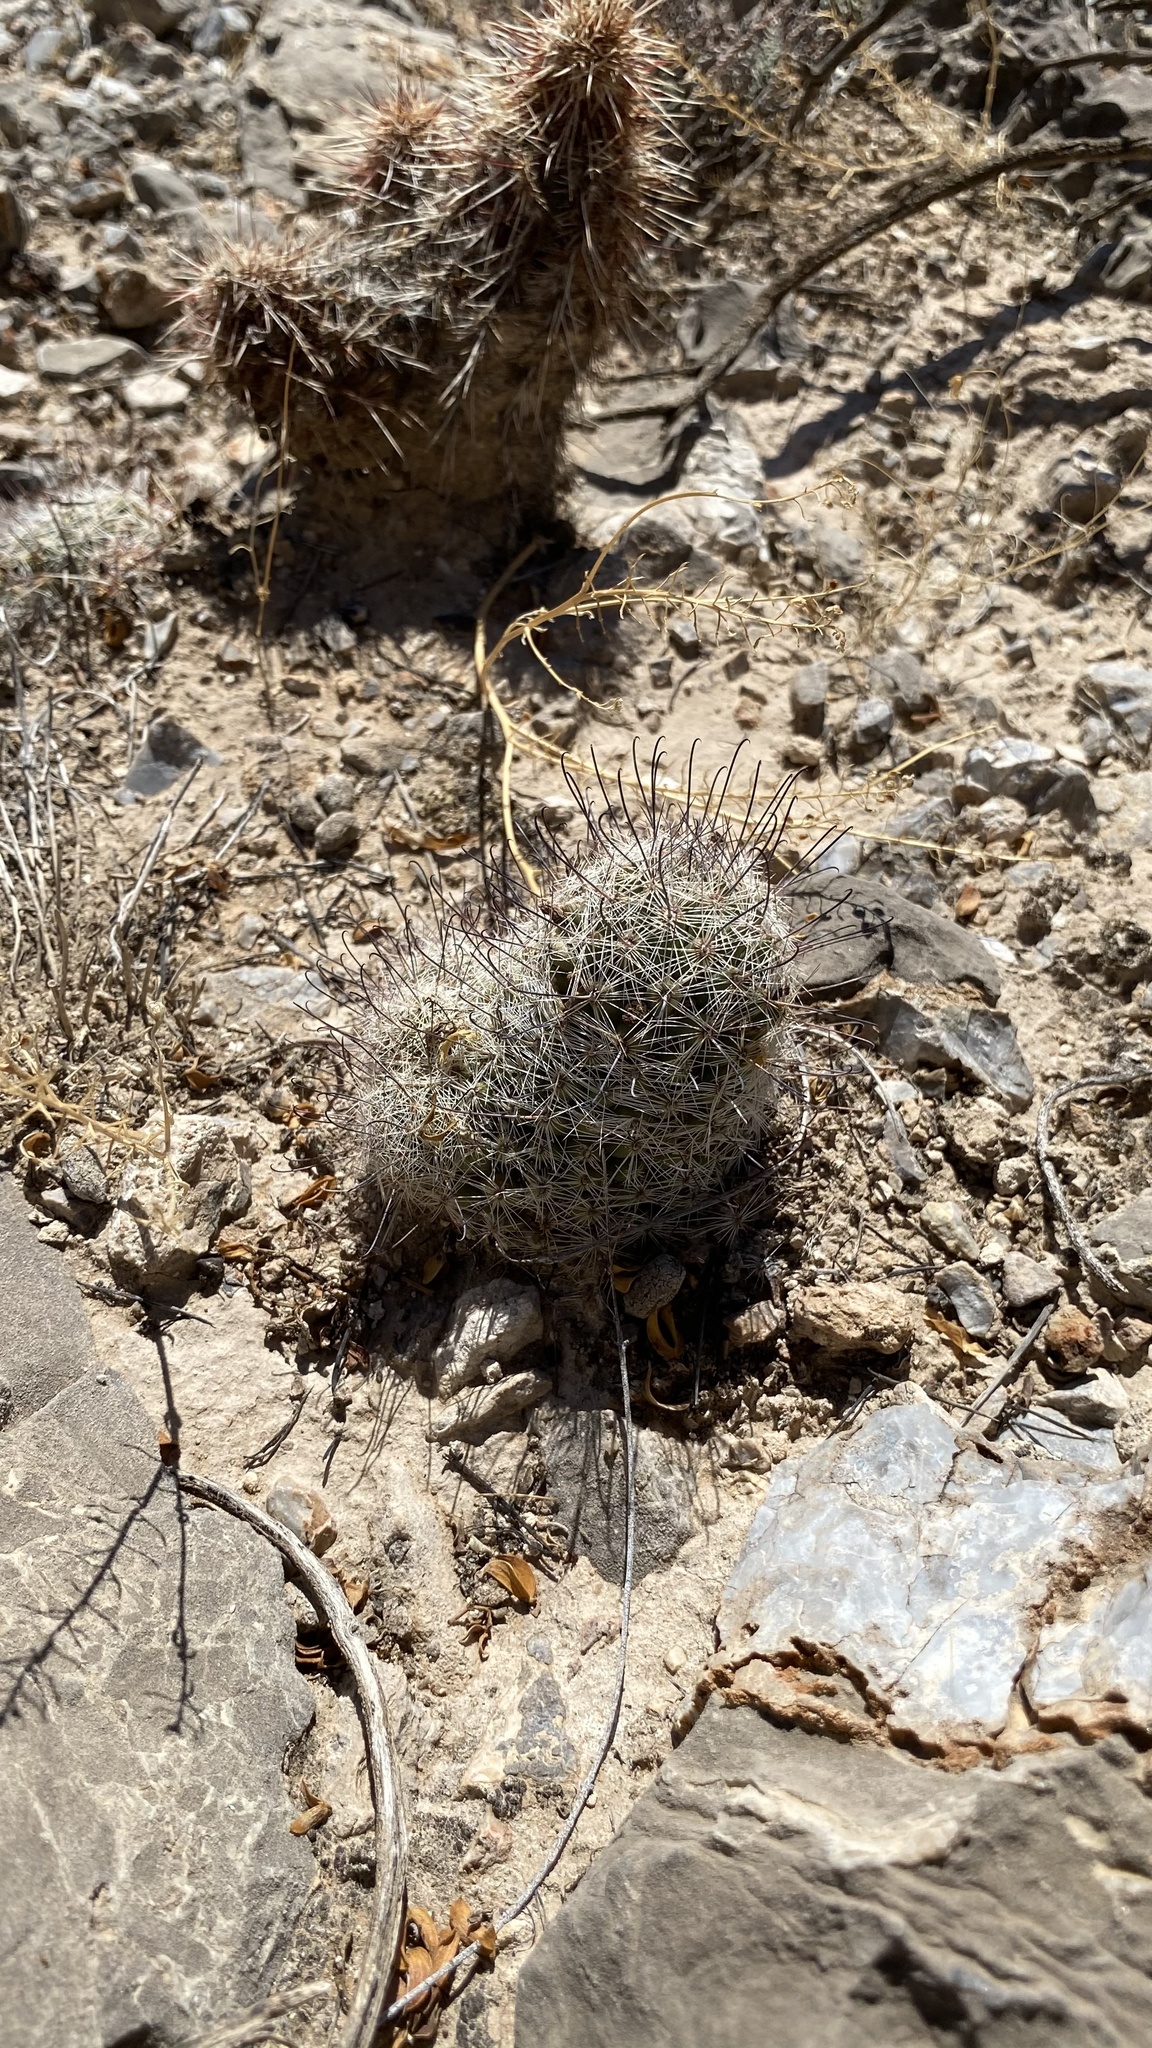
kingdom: Plantae
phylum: Tracheophyta
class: Magnoliopsida
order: Caryophyllales
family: Cactaceae
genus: Cochemiea
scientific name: Cochemiea grahamii
